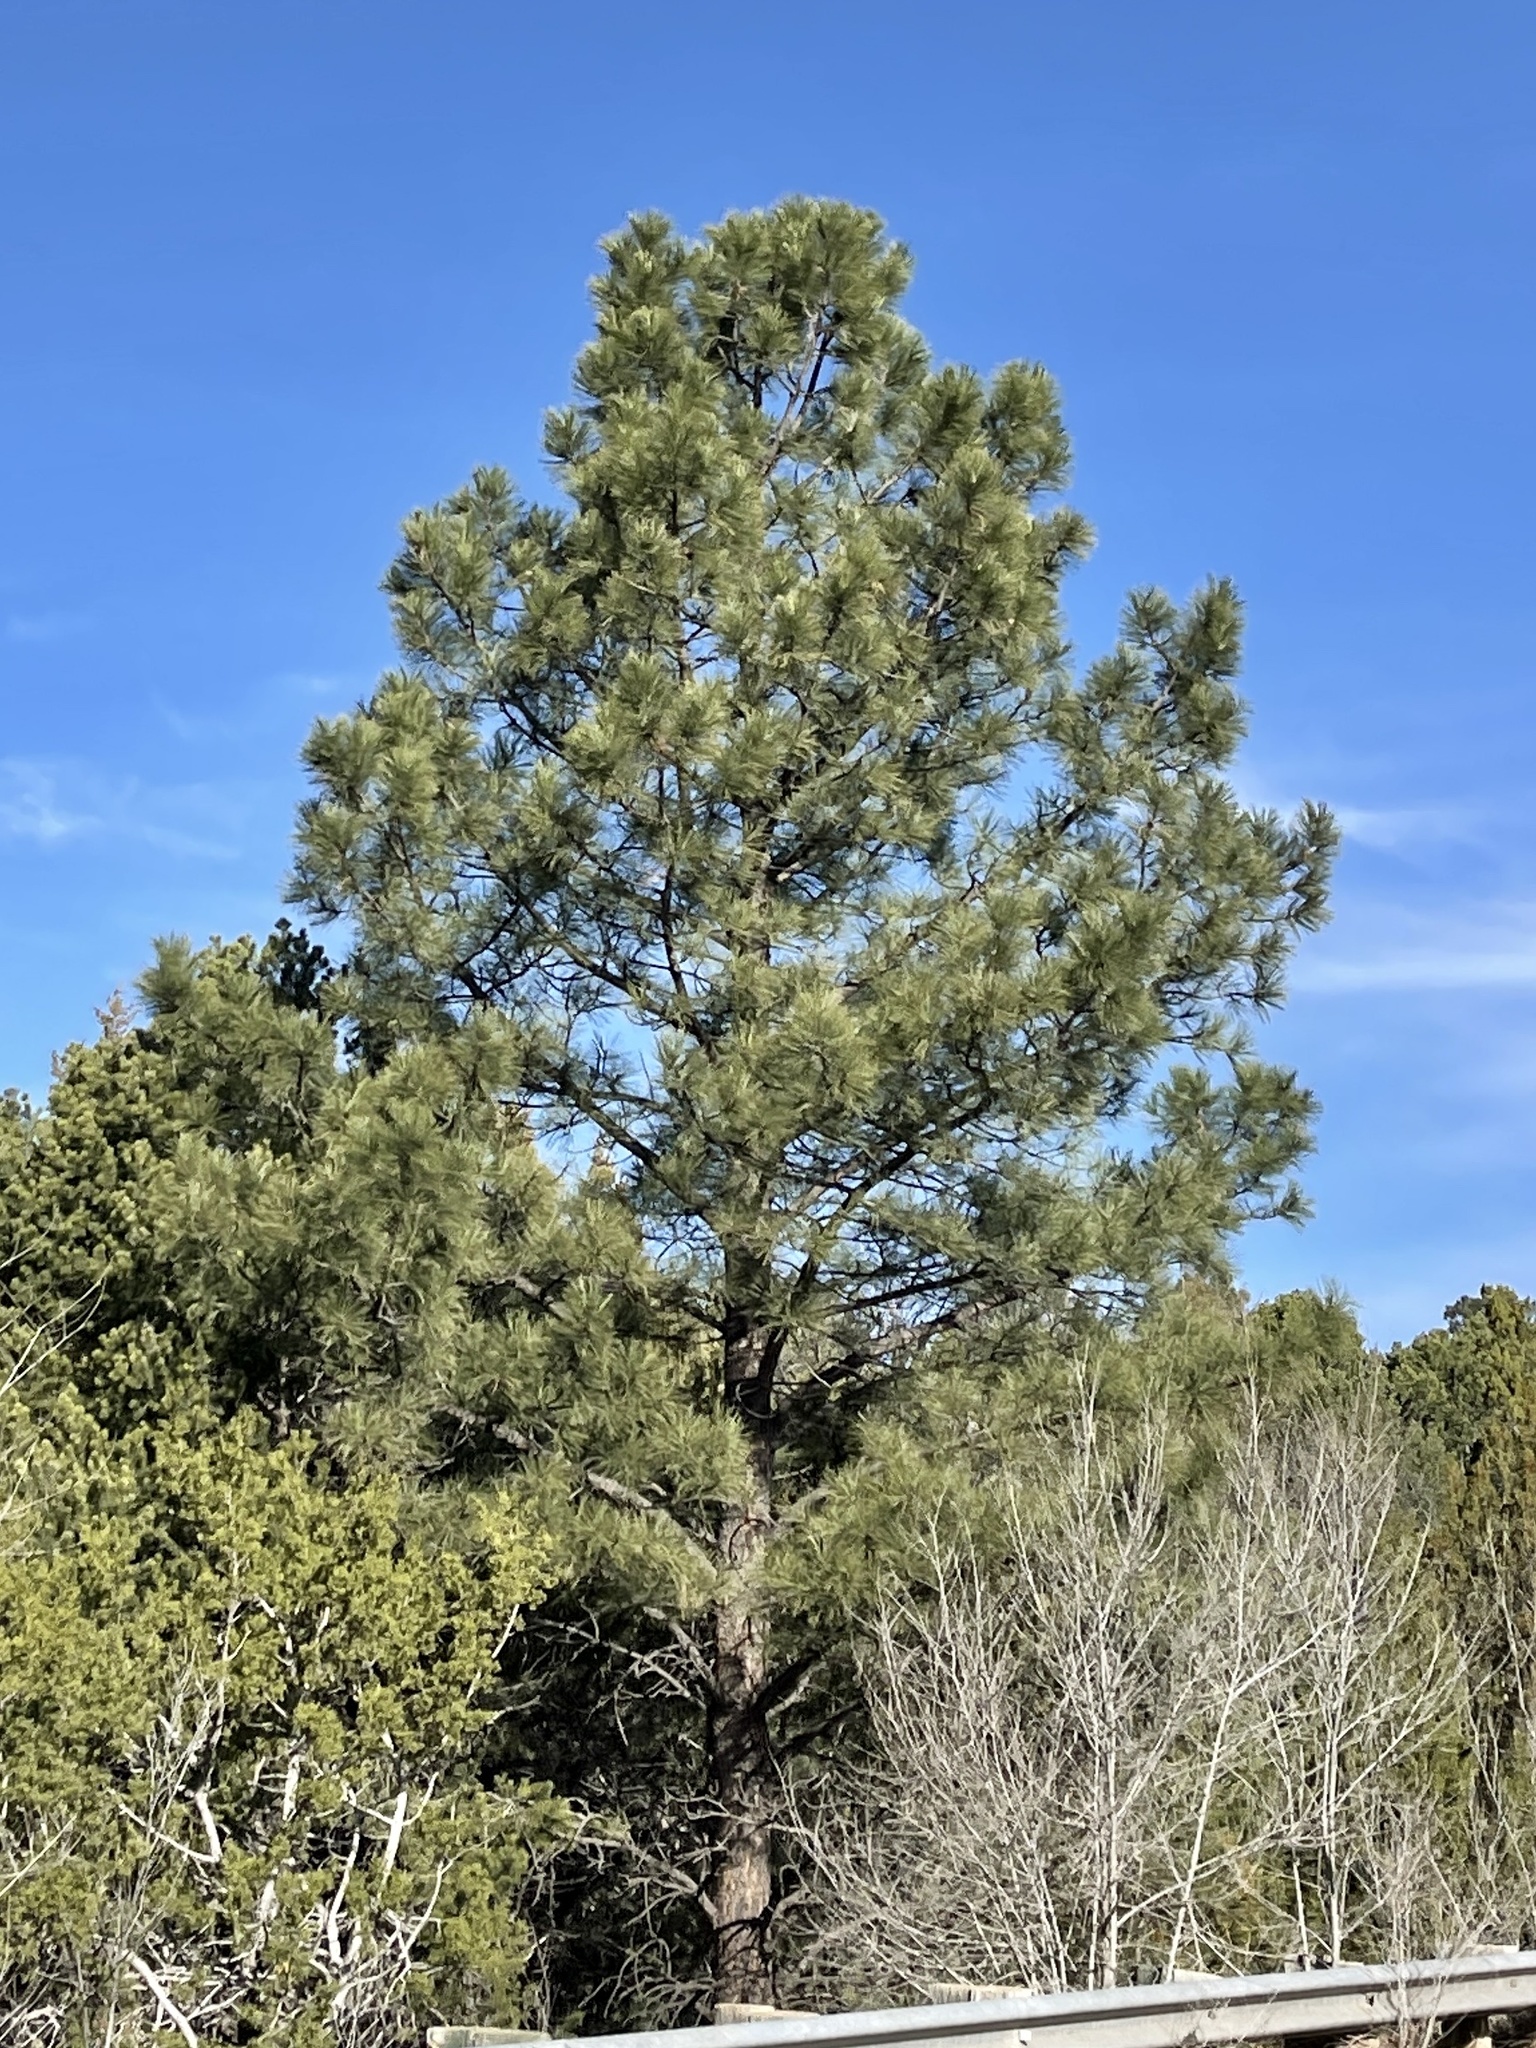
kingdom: Plantae
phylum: Tracheophyta
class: Pinopsida
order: Pinales
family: Pinaceae
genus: Pinus
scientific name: Pinus ponderosa
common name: Western yellow-pine
